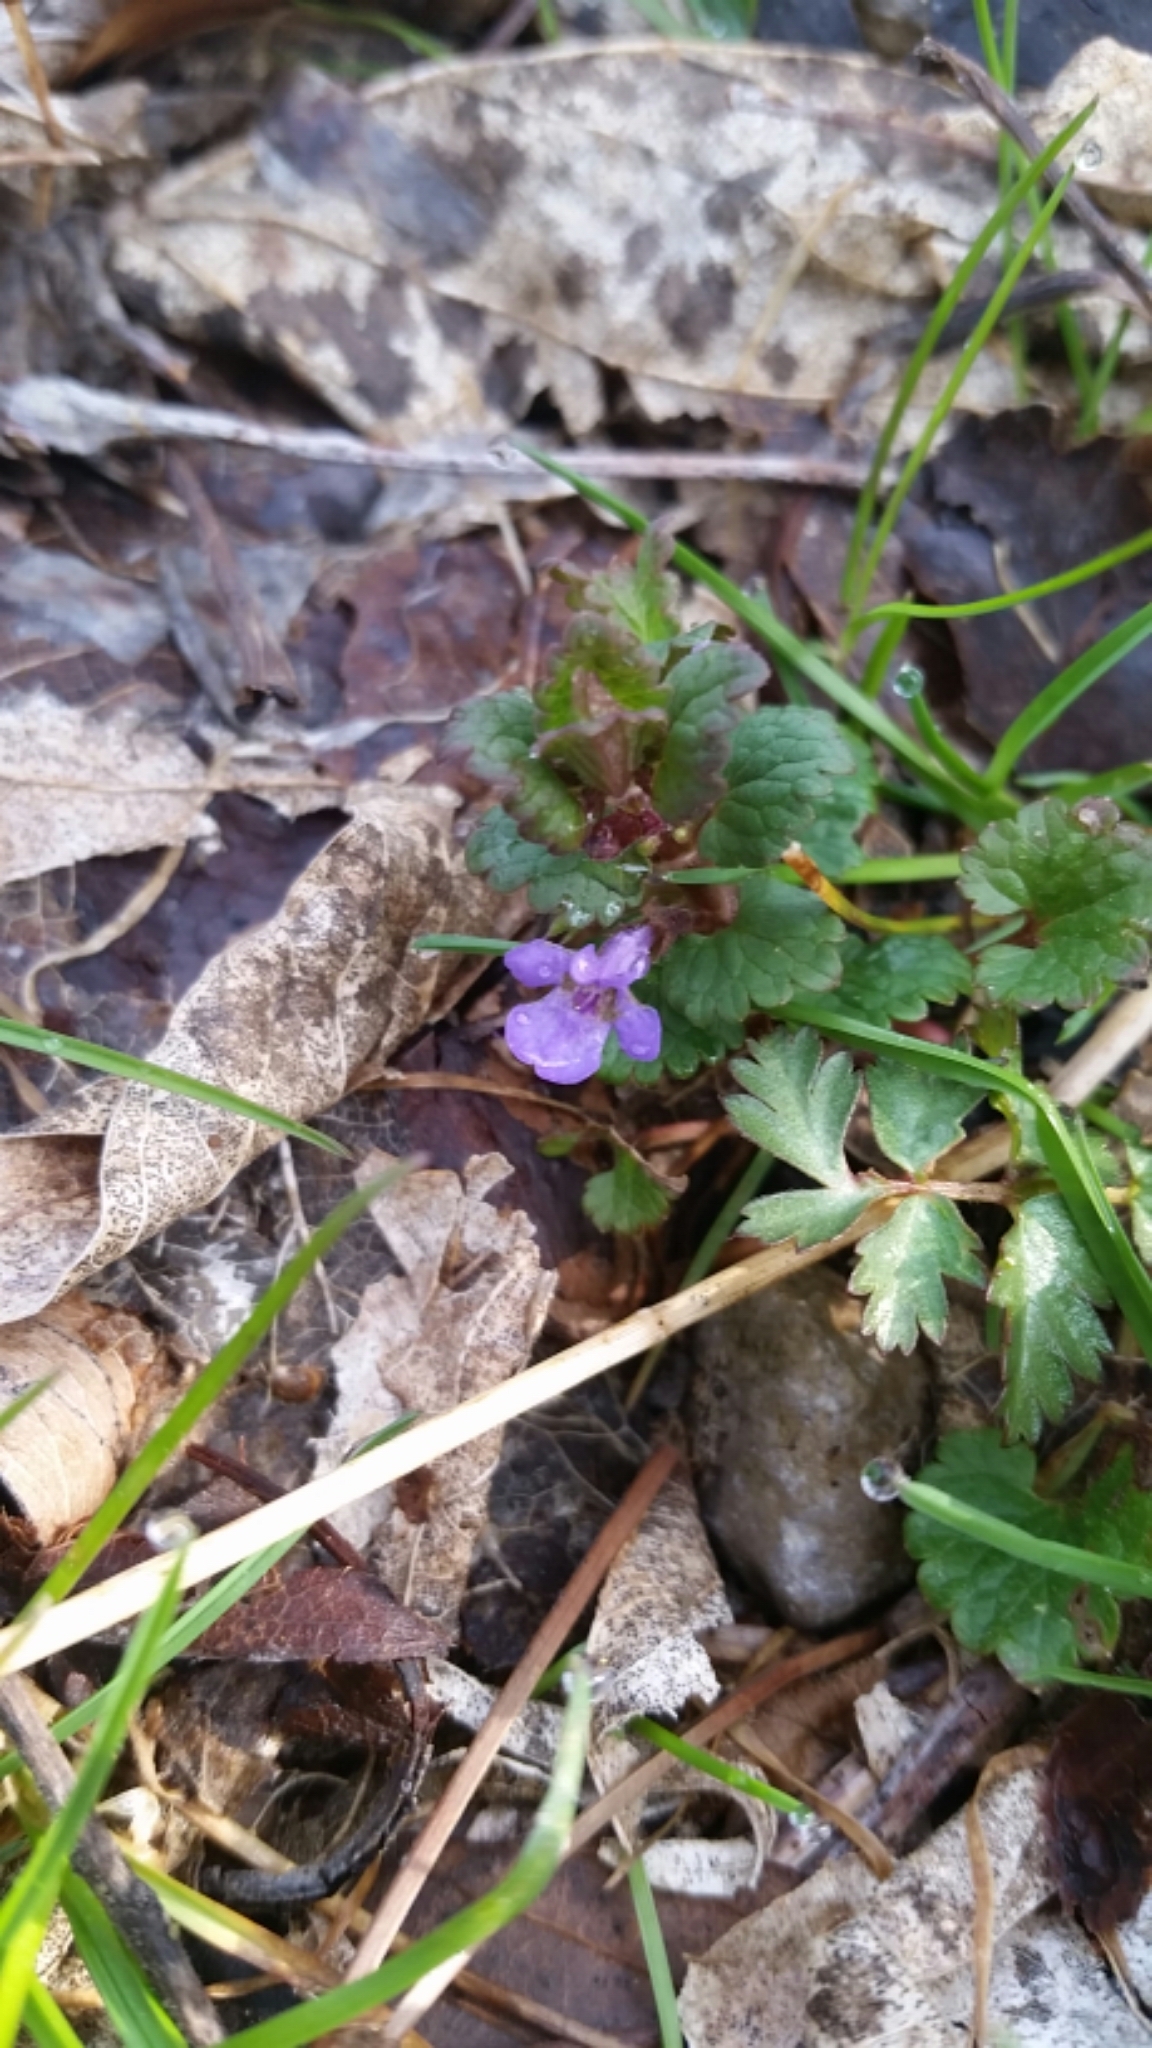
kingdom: Plantae
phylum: Tracheophyta
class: Magnoliopsida
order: Lamiales
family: Lamiaceae
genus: Glechoma
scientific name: Glechoma hederacea
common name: Ground ivy
